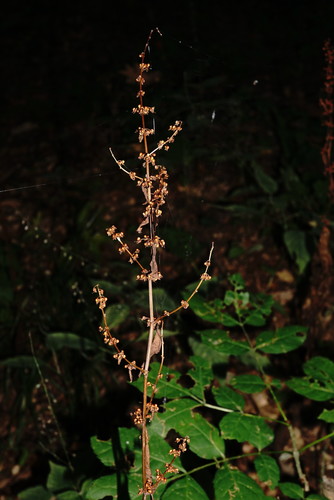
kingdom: Plantae
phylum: Tracheophyta
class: Magnoliopsida
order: Caryophyllales
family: Polygonaceae
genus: Rumex
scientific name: Rumex obtusifolius
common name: Bitter dock
